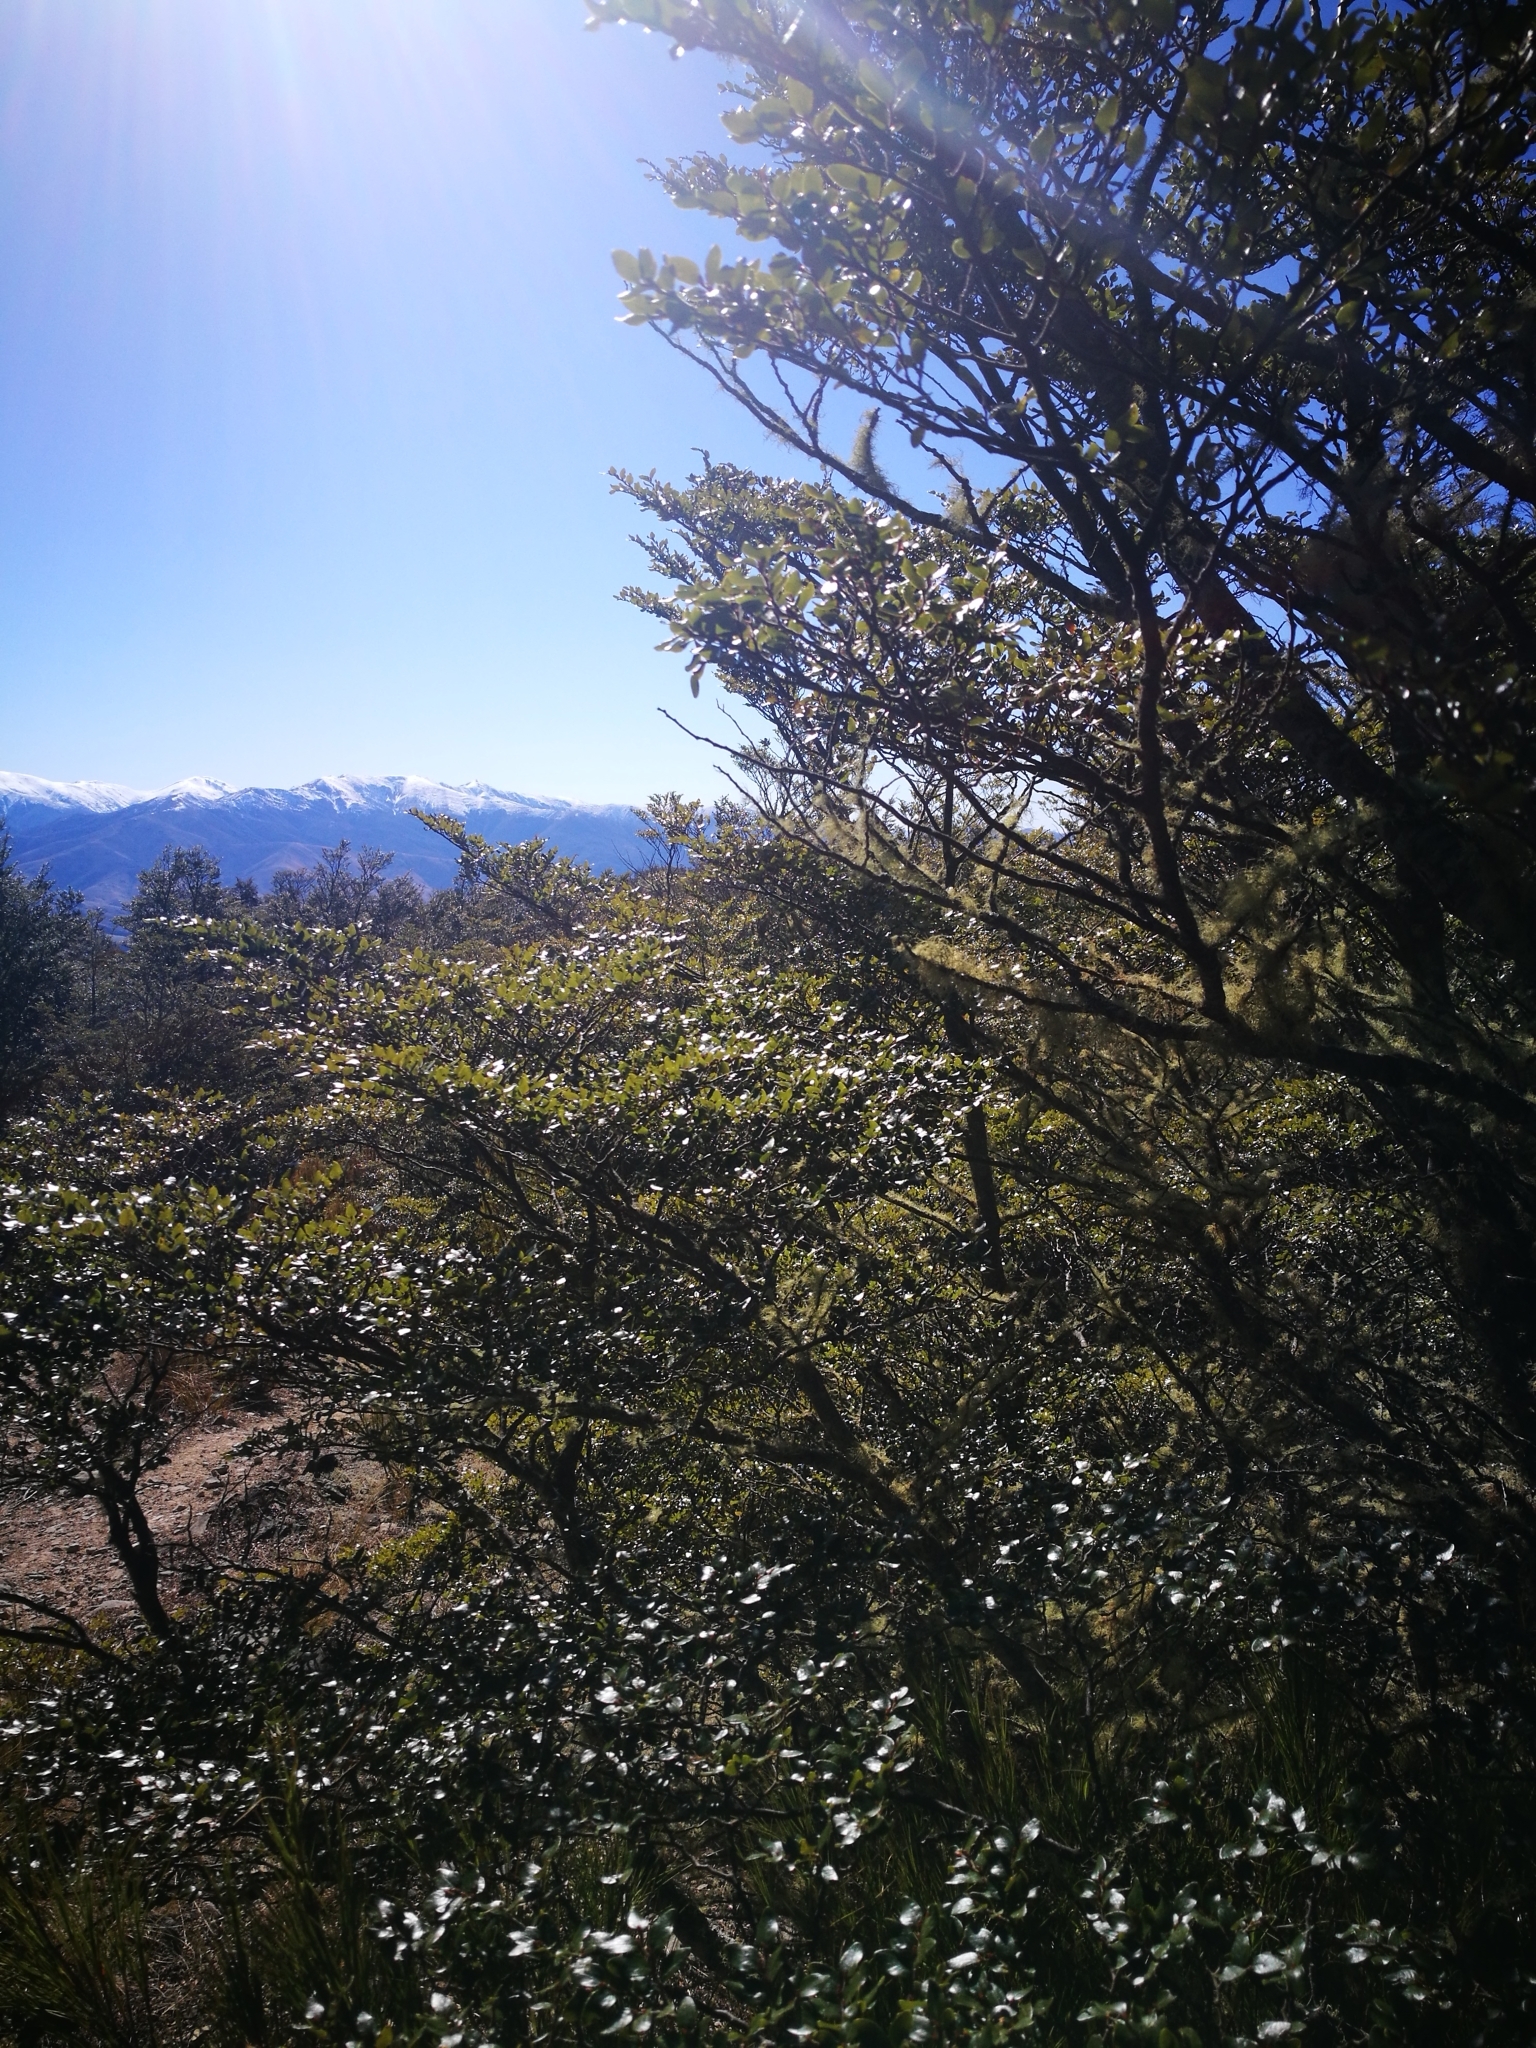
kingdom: Plantae
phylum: Tracheophyta
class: Magnoliopsida
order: Fagales
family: Nothofagaceae
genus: Nothofagus
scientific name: Nothofagus cliffortioides
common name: Mountain beech
